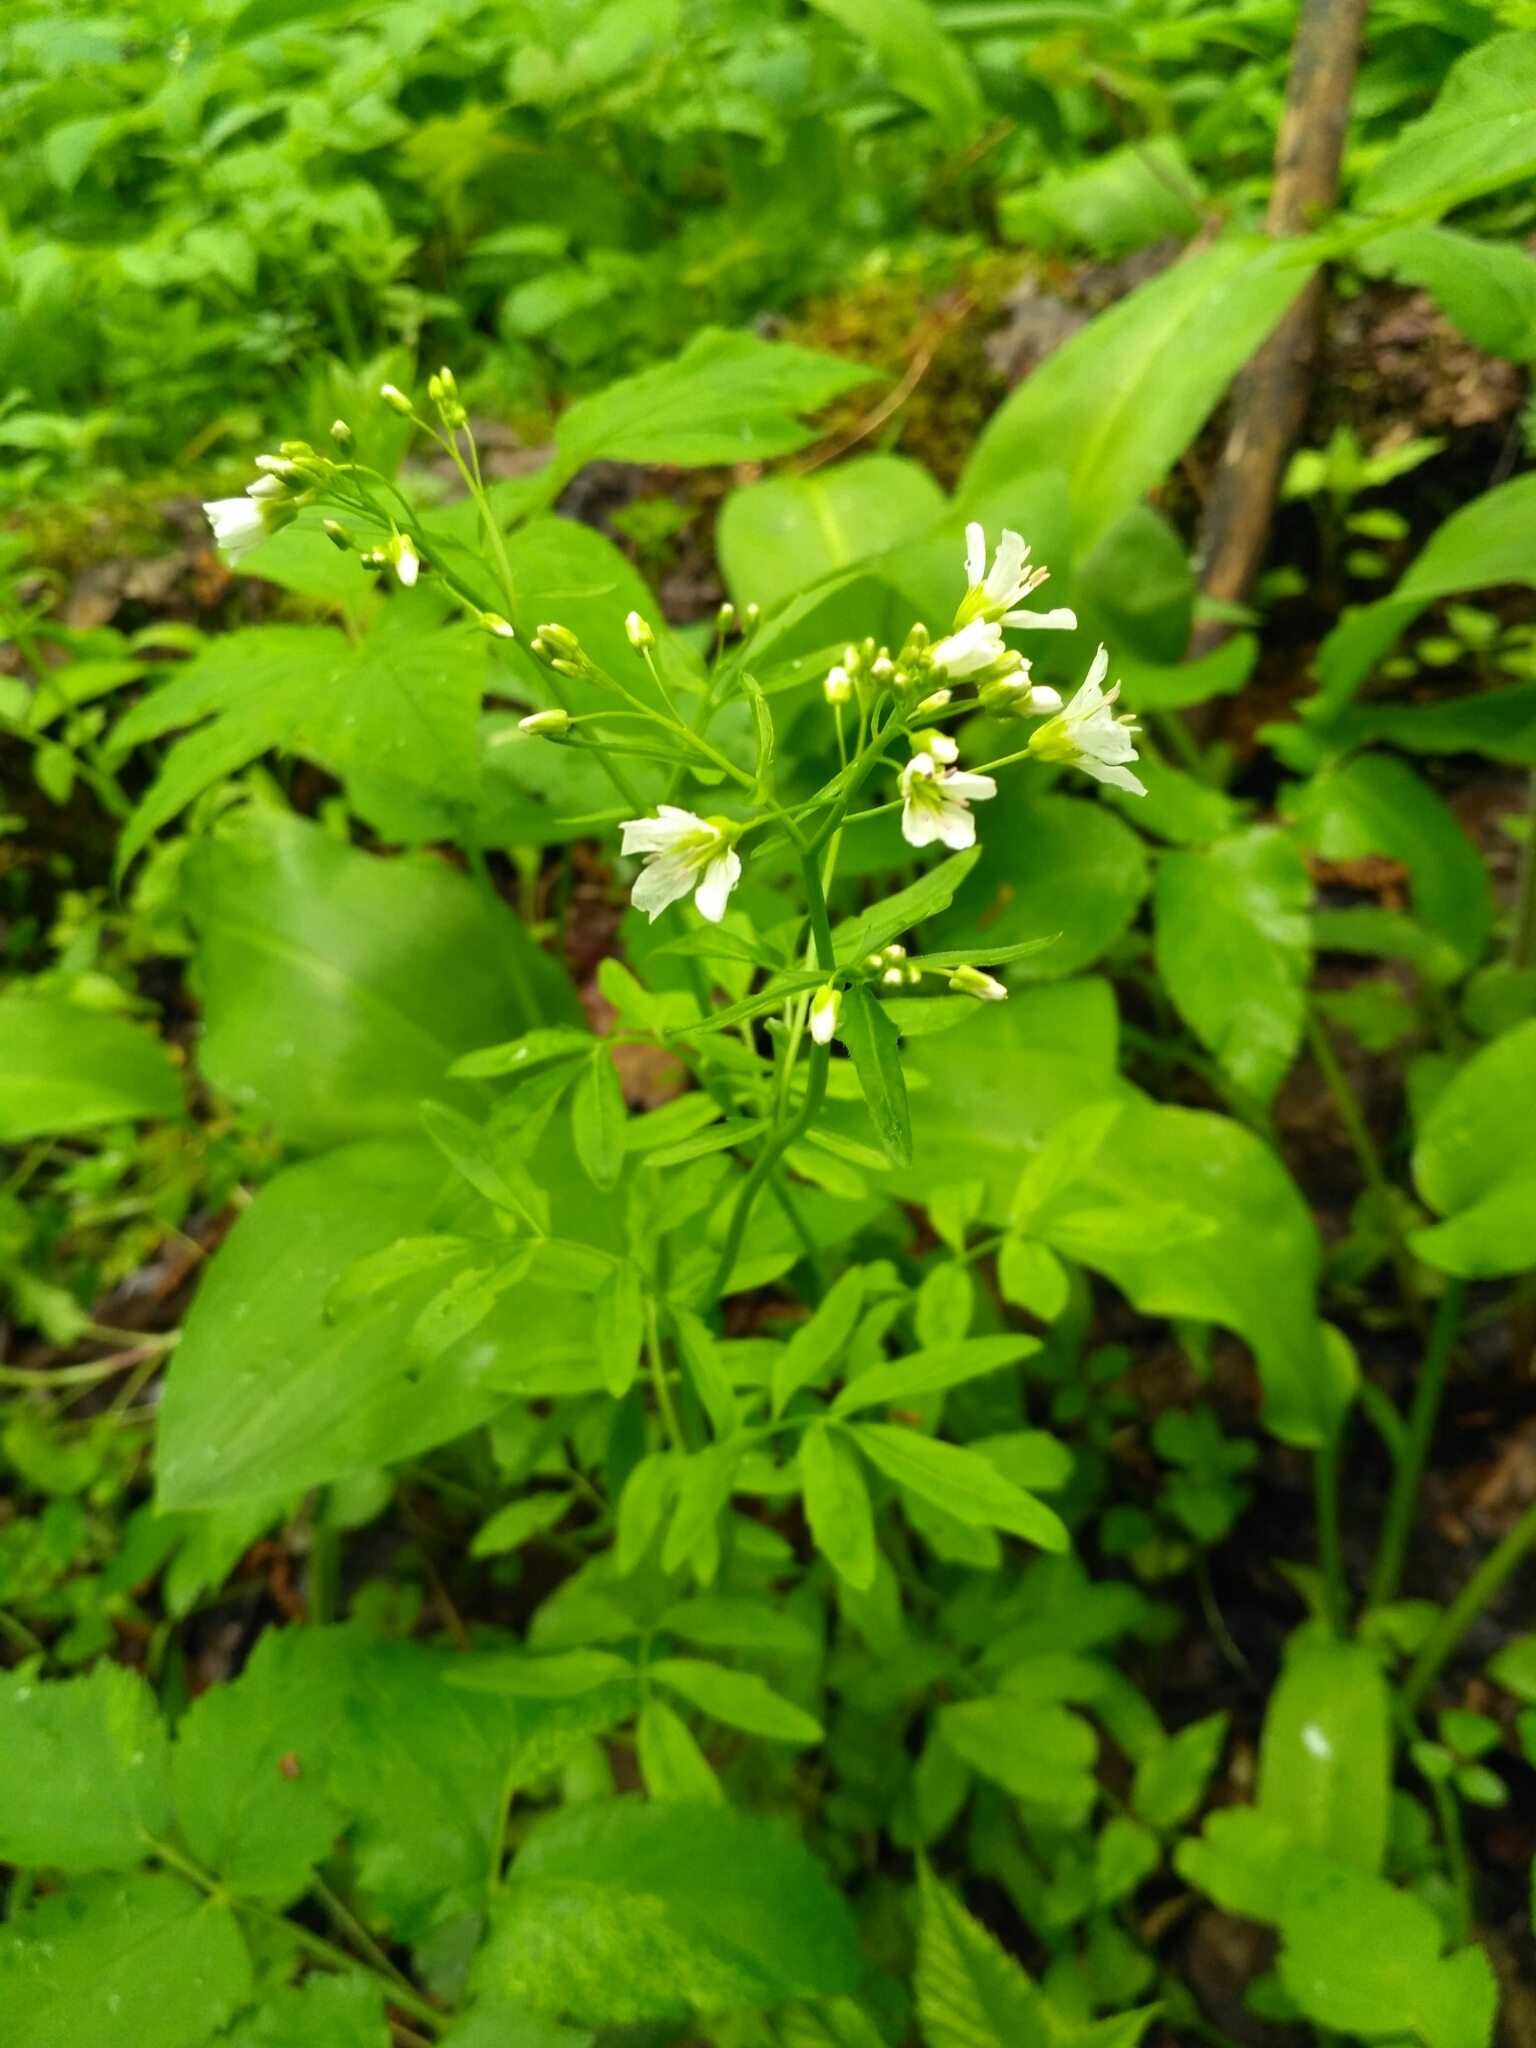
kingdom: Plantae
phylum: Tracheophyta
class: Magnoliopsida
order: Brassicales
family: Brassicaceae
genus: Cardamine
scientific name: Cardamine amara
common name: Large bitter-cress
